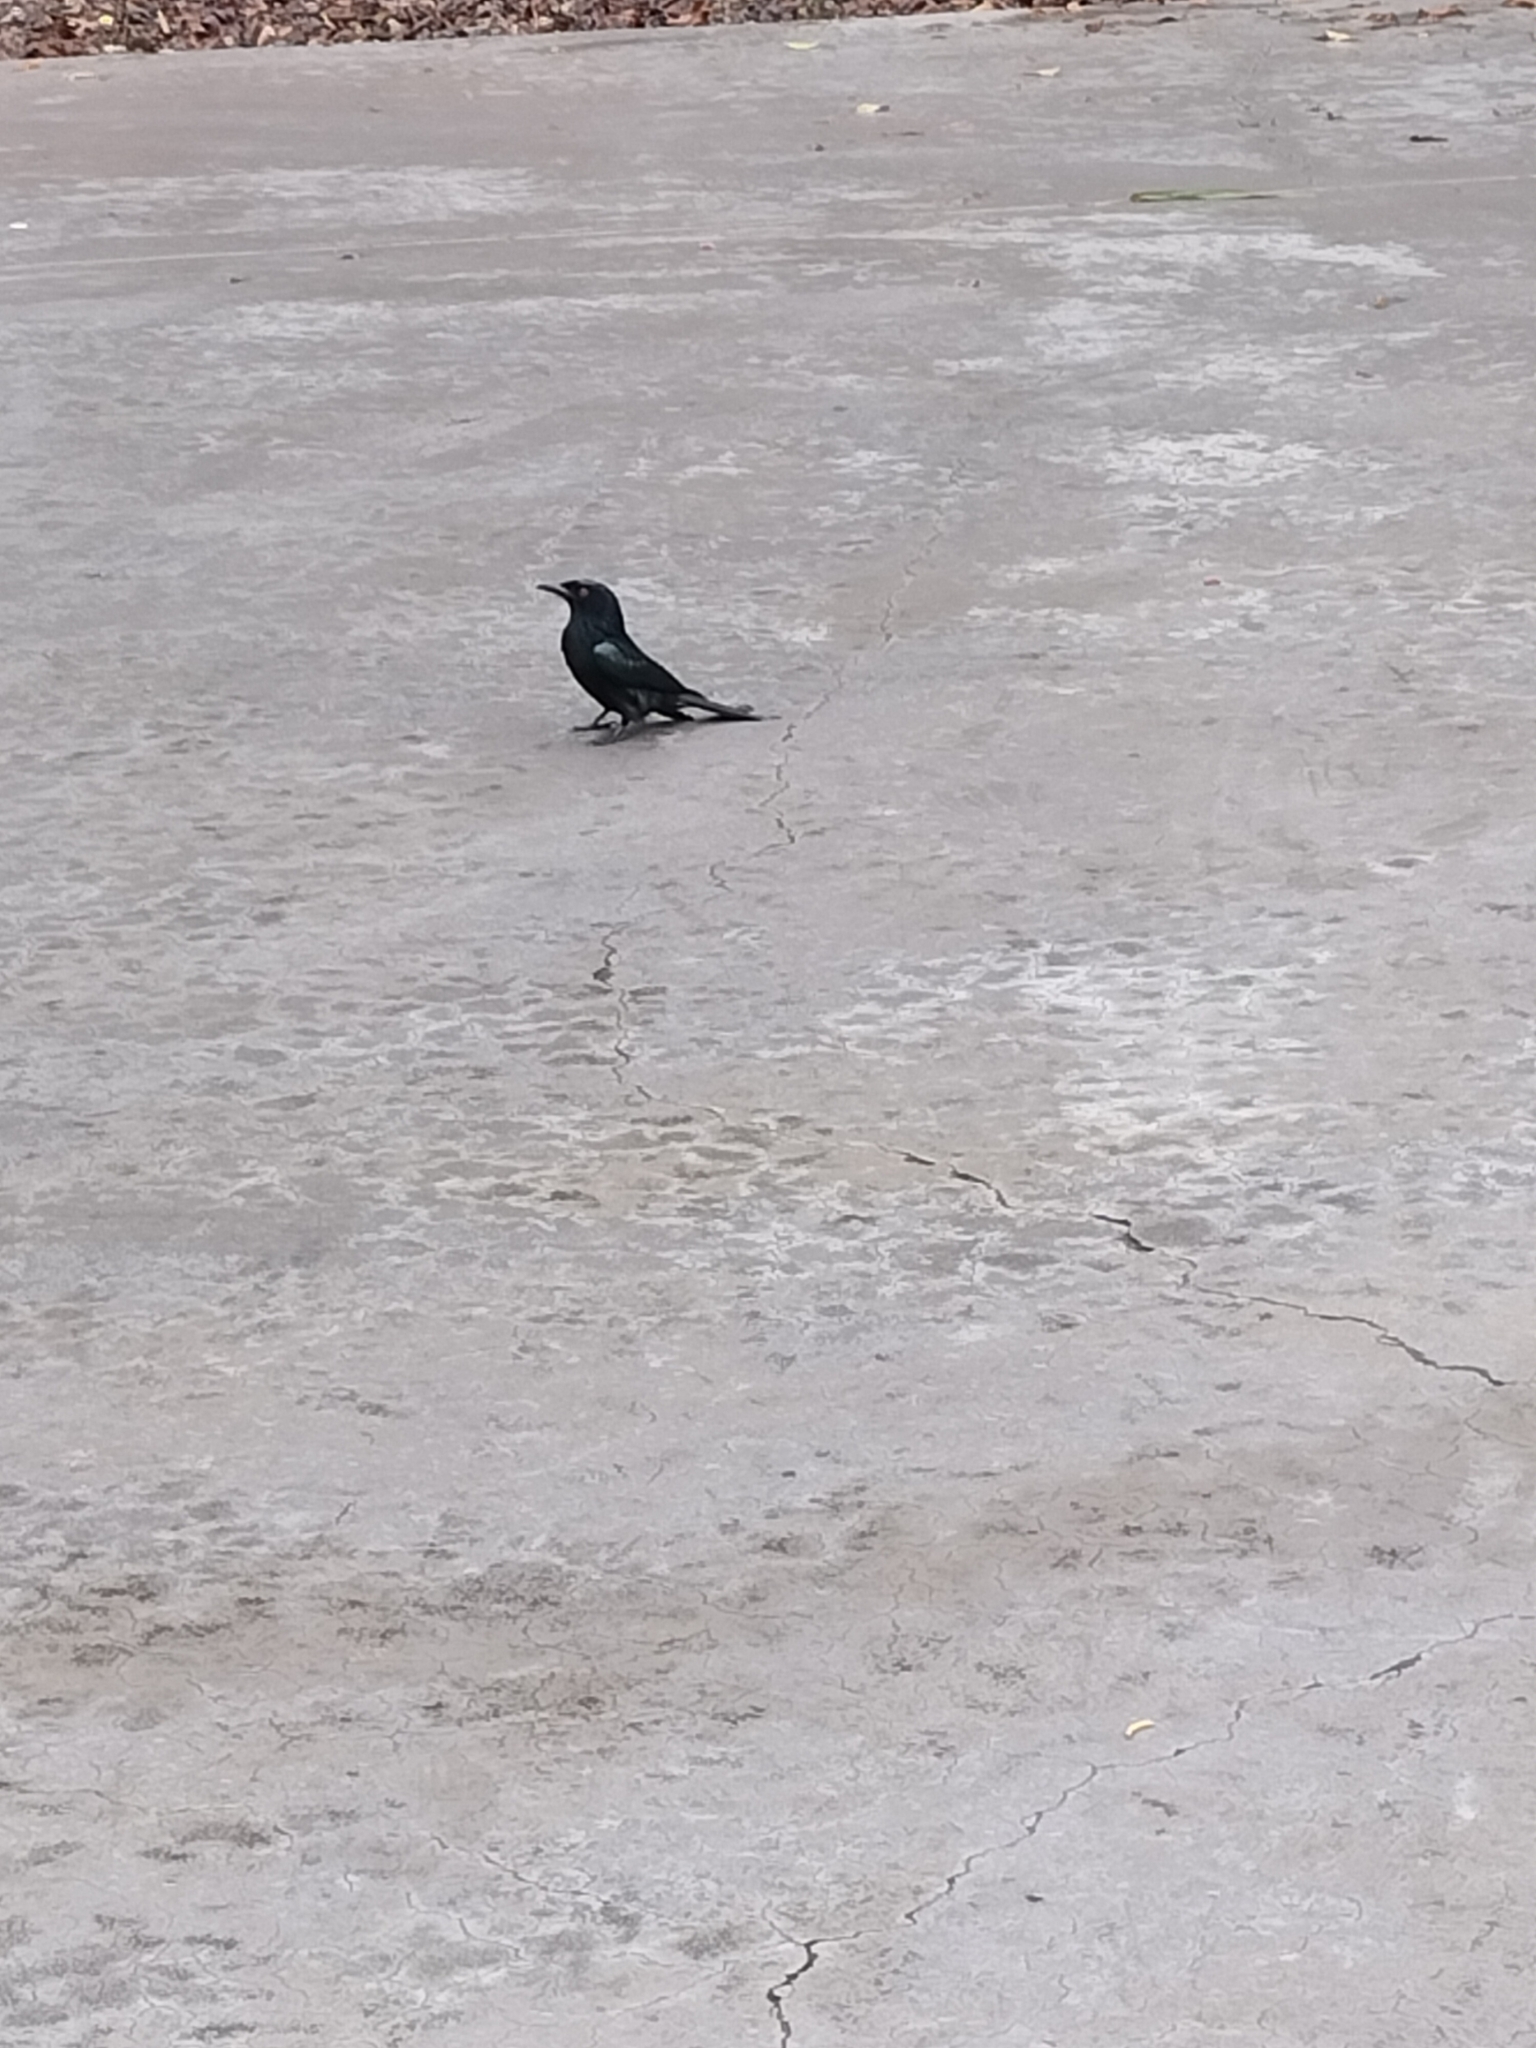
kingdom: Animalia
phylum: Chordata
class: Aves
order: Passeriformes
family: Dicruridae
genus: Dicrurus
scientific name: Dicrurus bracteatus
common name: Spangled drongo
